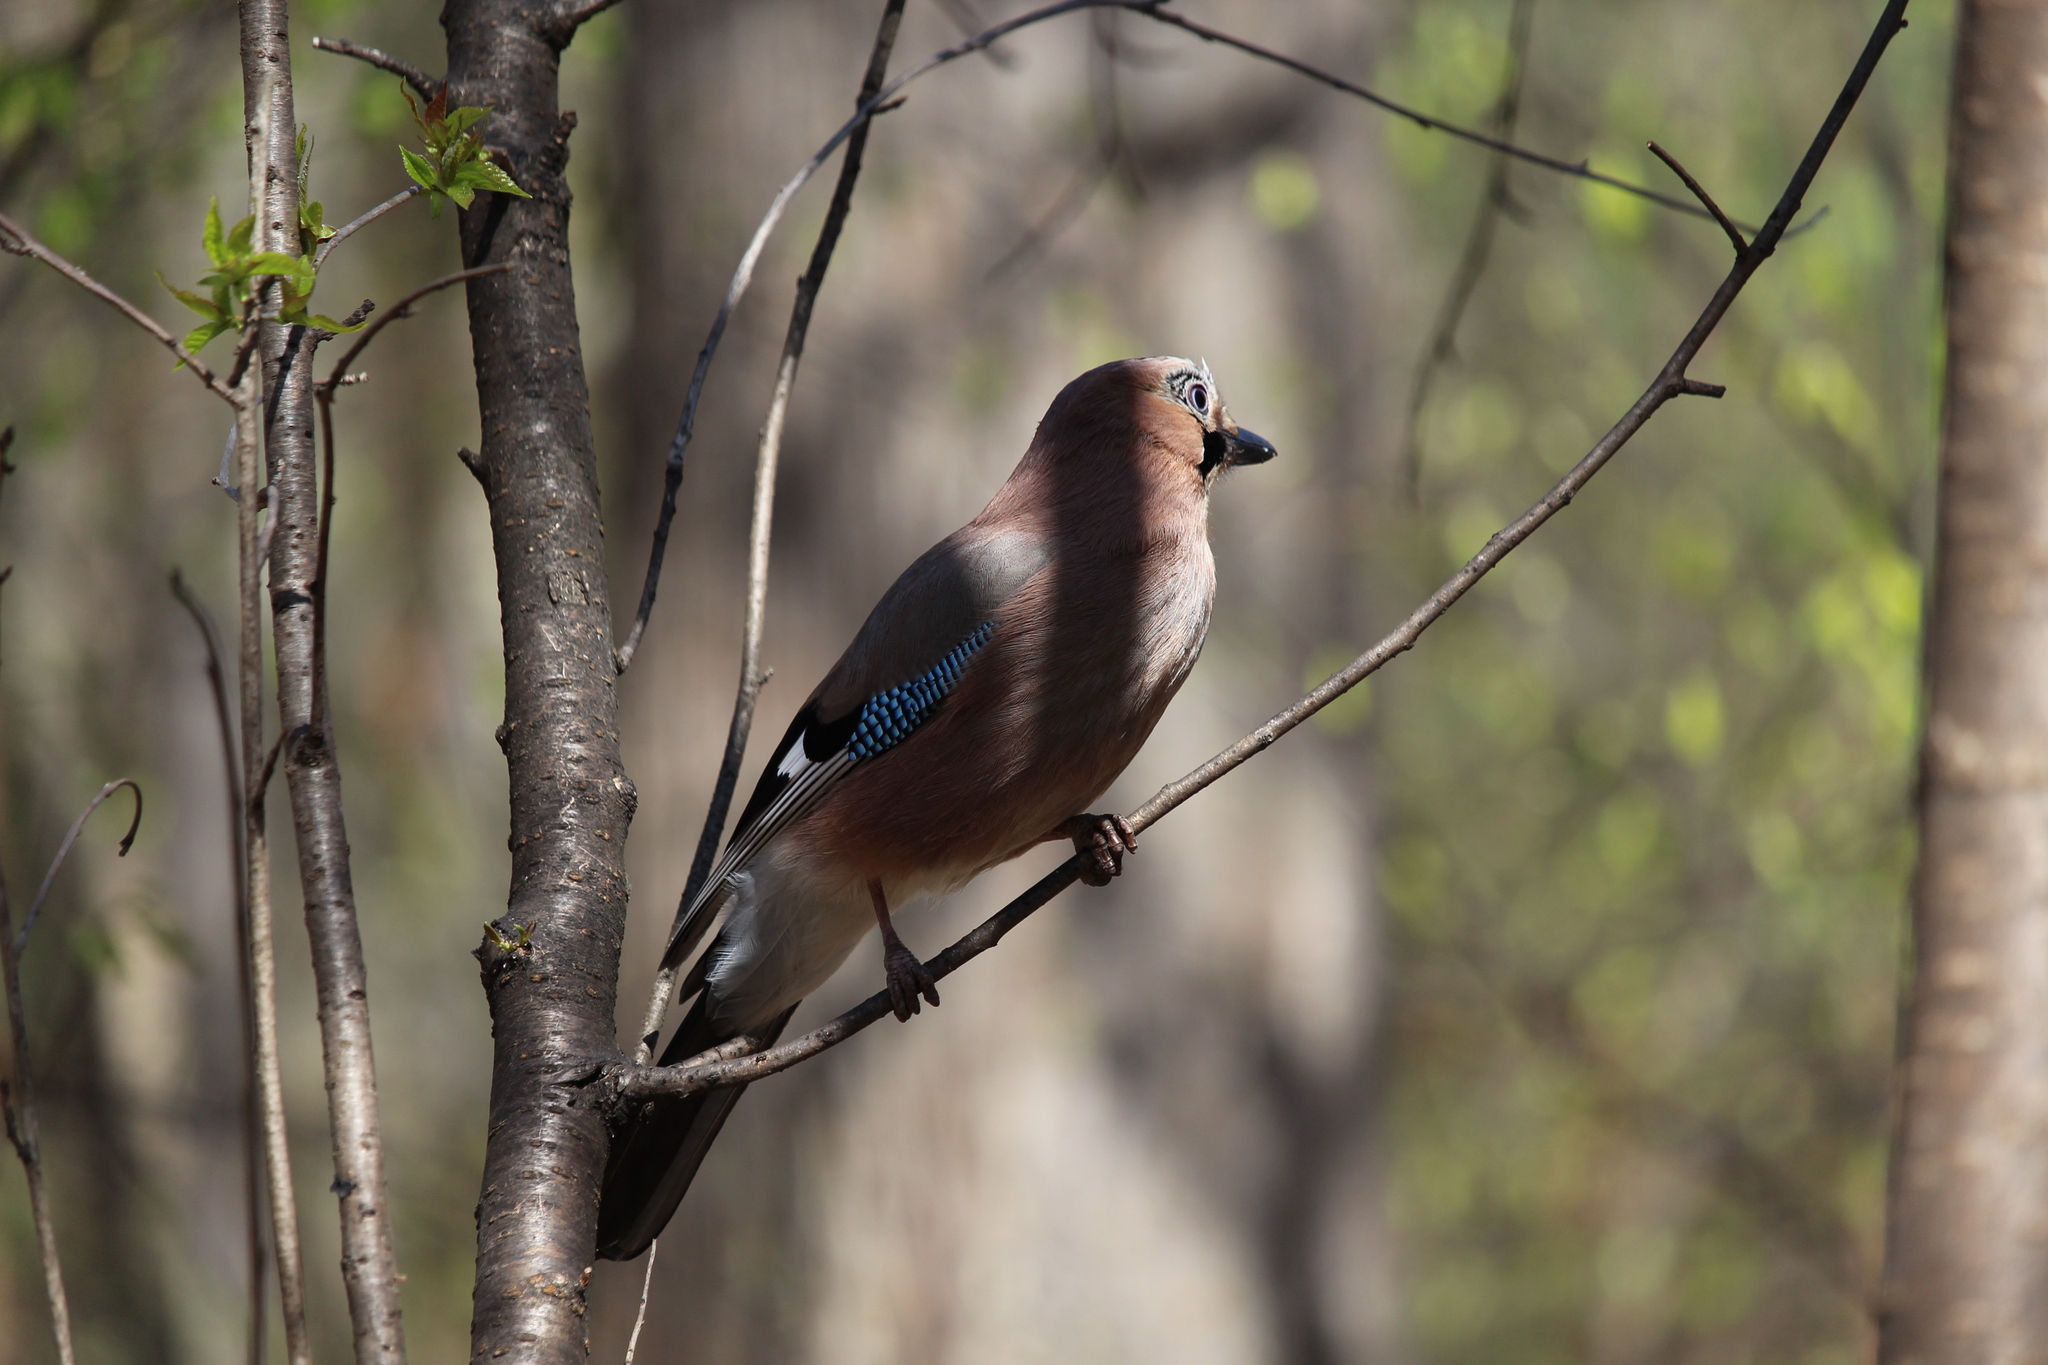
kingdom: Animalia
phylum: Chordata
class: Aves
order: Passeriformes
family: Corvidae
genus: Garrulus
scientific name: Garrulus glandarius
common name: Eurasian jay
